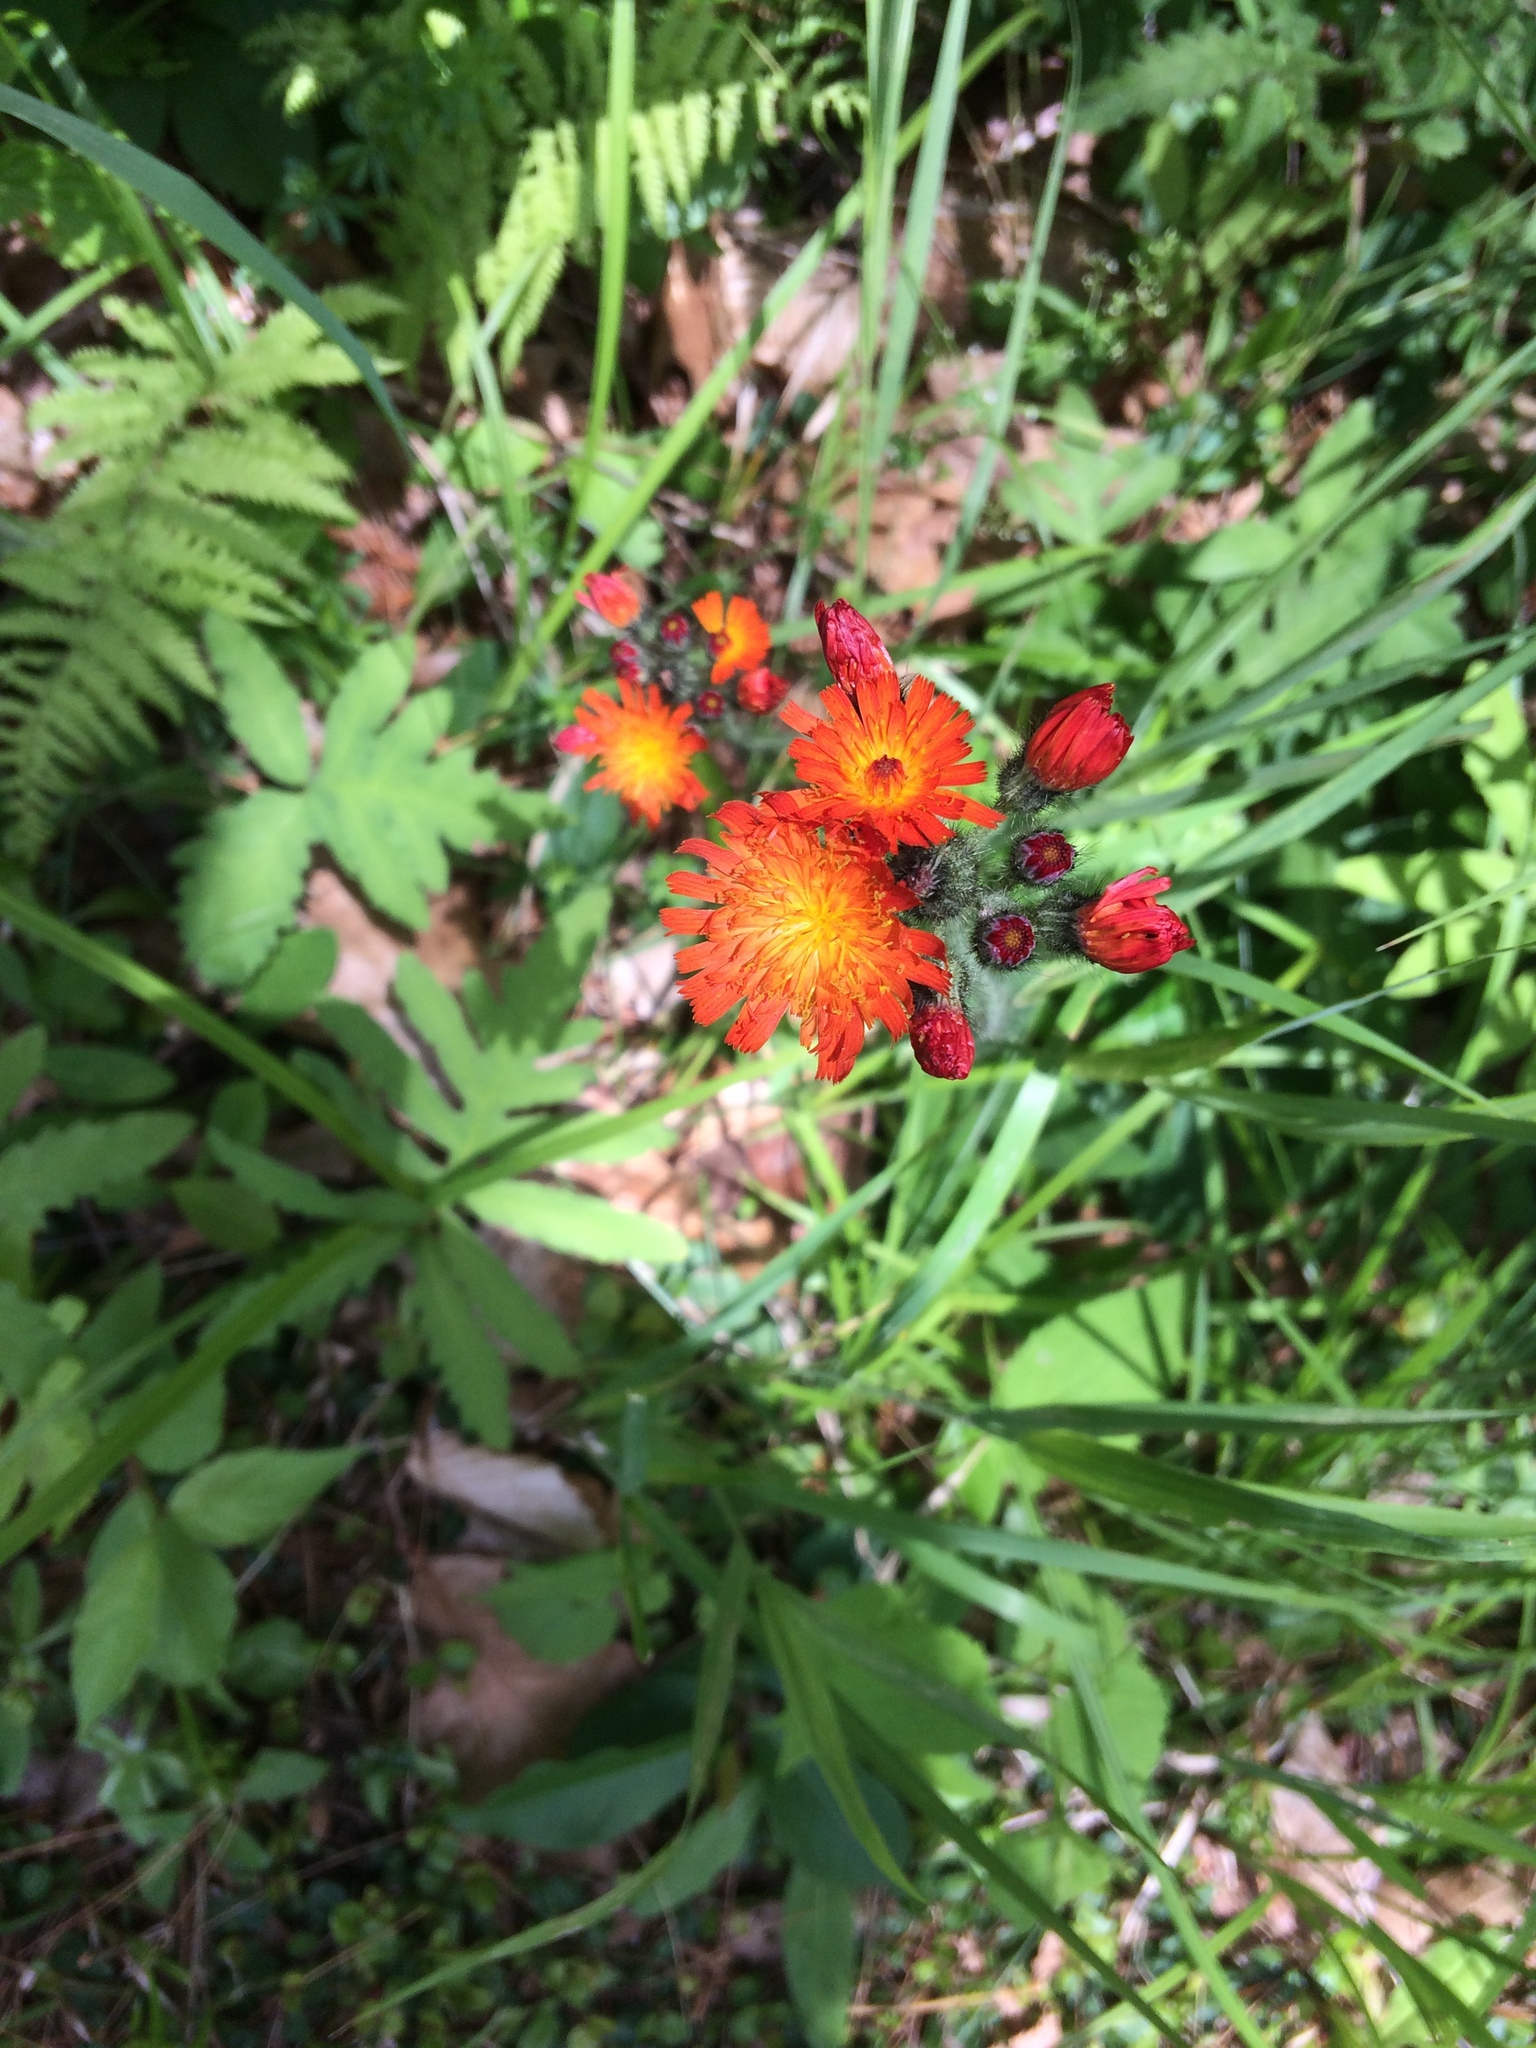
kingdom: Plantae
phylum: Tracheophyta
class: Magnoliopsida
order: Asterales
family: Asteraceae
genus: Pilosella
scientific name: Pilosella aurantiaca
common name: Fox-and-cubs
